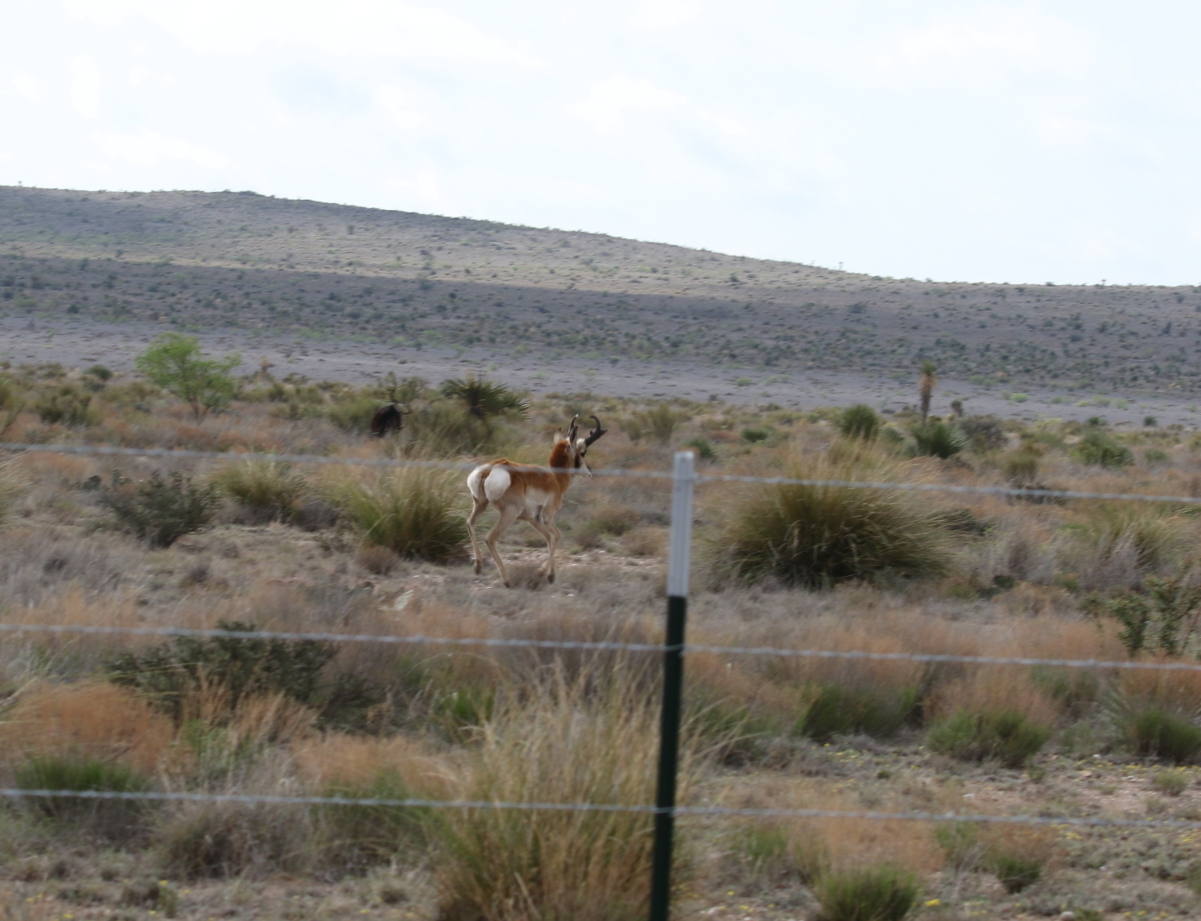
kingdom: Animalia
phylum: Chordata
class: Mammalia
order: Artiodactyla
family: Antilocapridae
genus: Antilocapra
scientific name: Antilocapra americana
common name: Pronghorn
